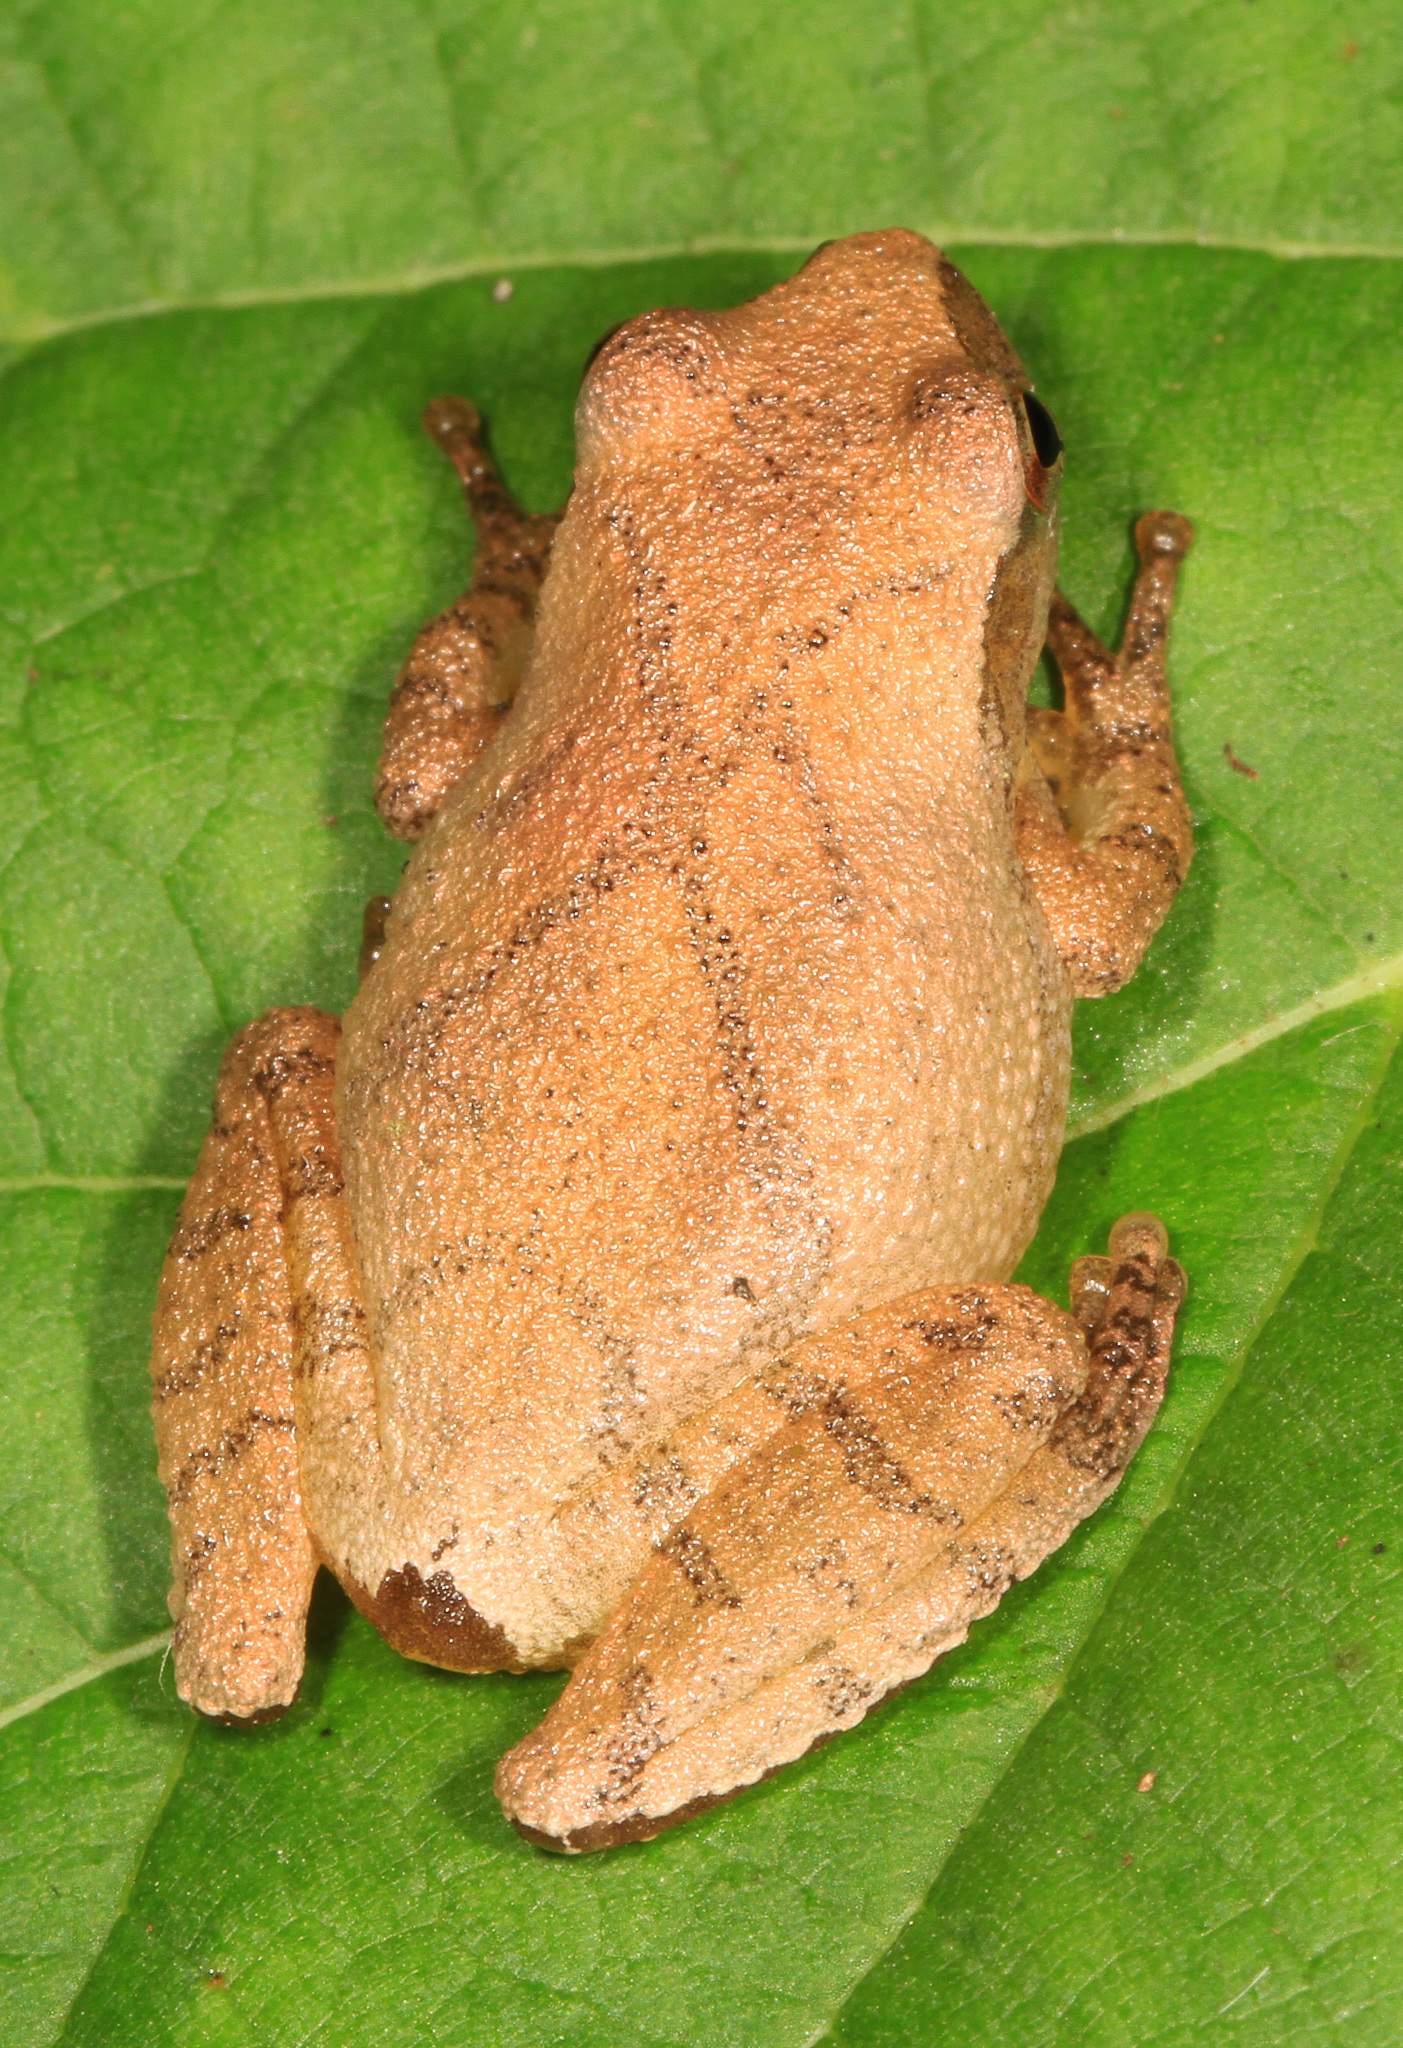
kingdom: Animalia
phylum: Chordata
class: Amphibia
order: Anura
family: Hylidae
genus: Pseudacris
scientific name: Pseudacris crucifer
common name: Spring peeper
